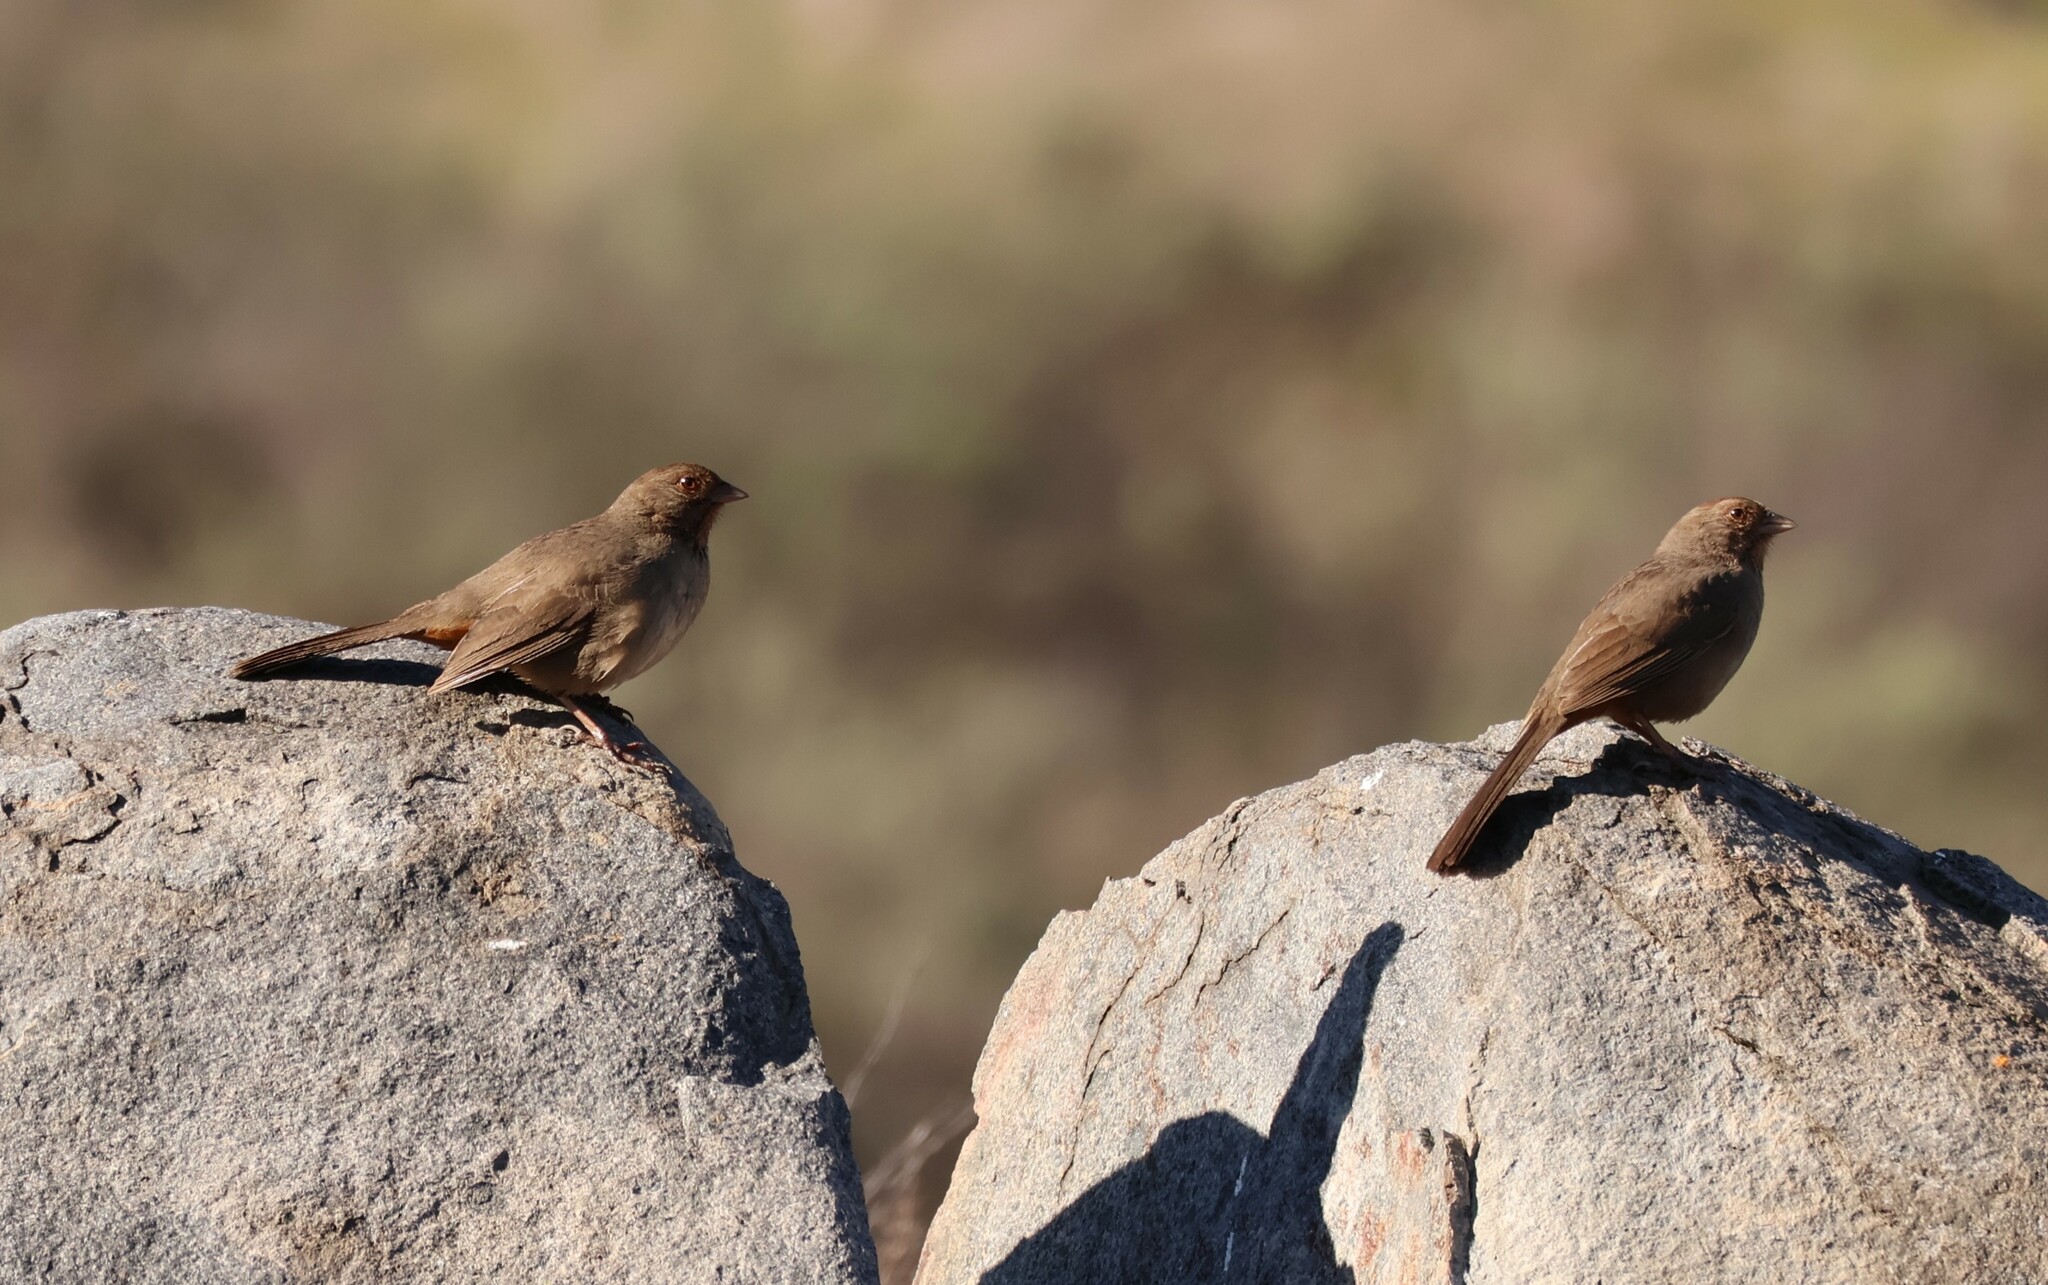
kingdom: Animalia
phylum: Chordata
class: Aves
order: Passeriformes
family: Passerellidae
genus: Melozone
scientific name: Melozone crissalis
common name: California towhee
